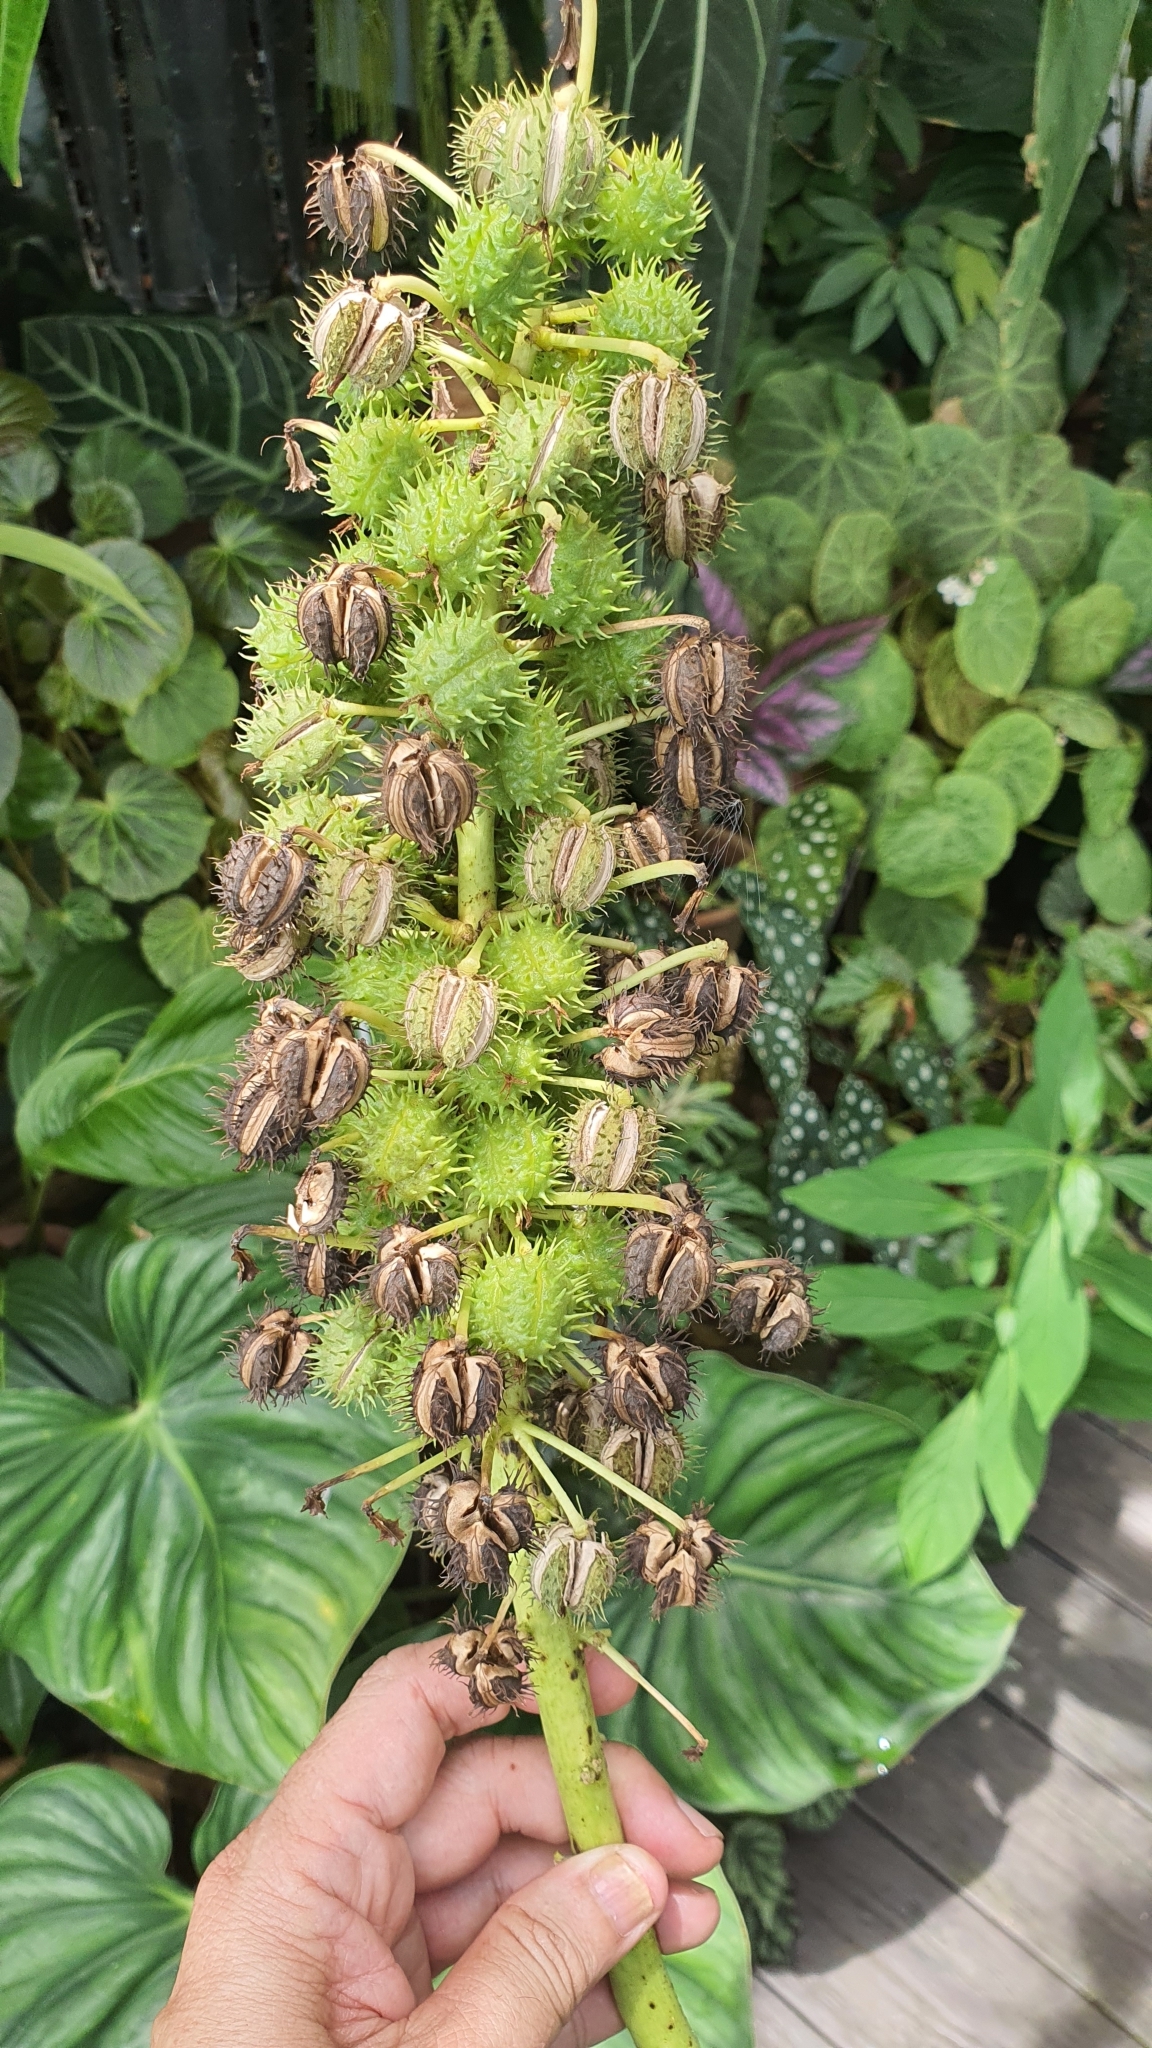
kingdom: Plantae
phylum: Tracheophyta
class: Magnoliopsida
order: Malpighiales
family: Euphorbiaceae
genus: Ricinus
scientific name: Ricinus communis
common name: Castor-oil-plant
